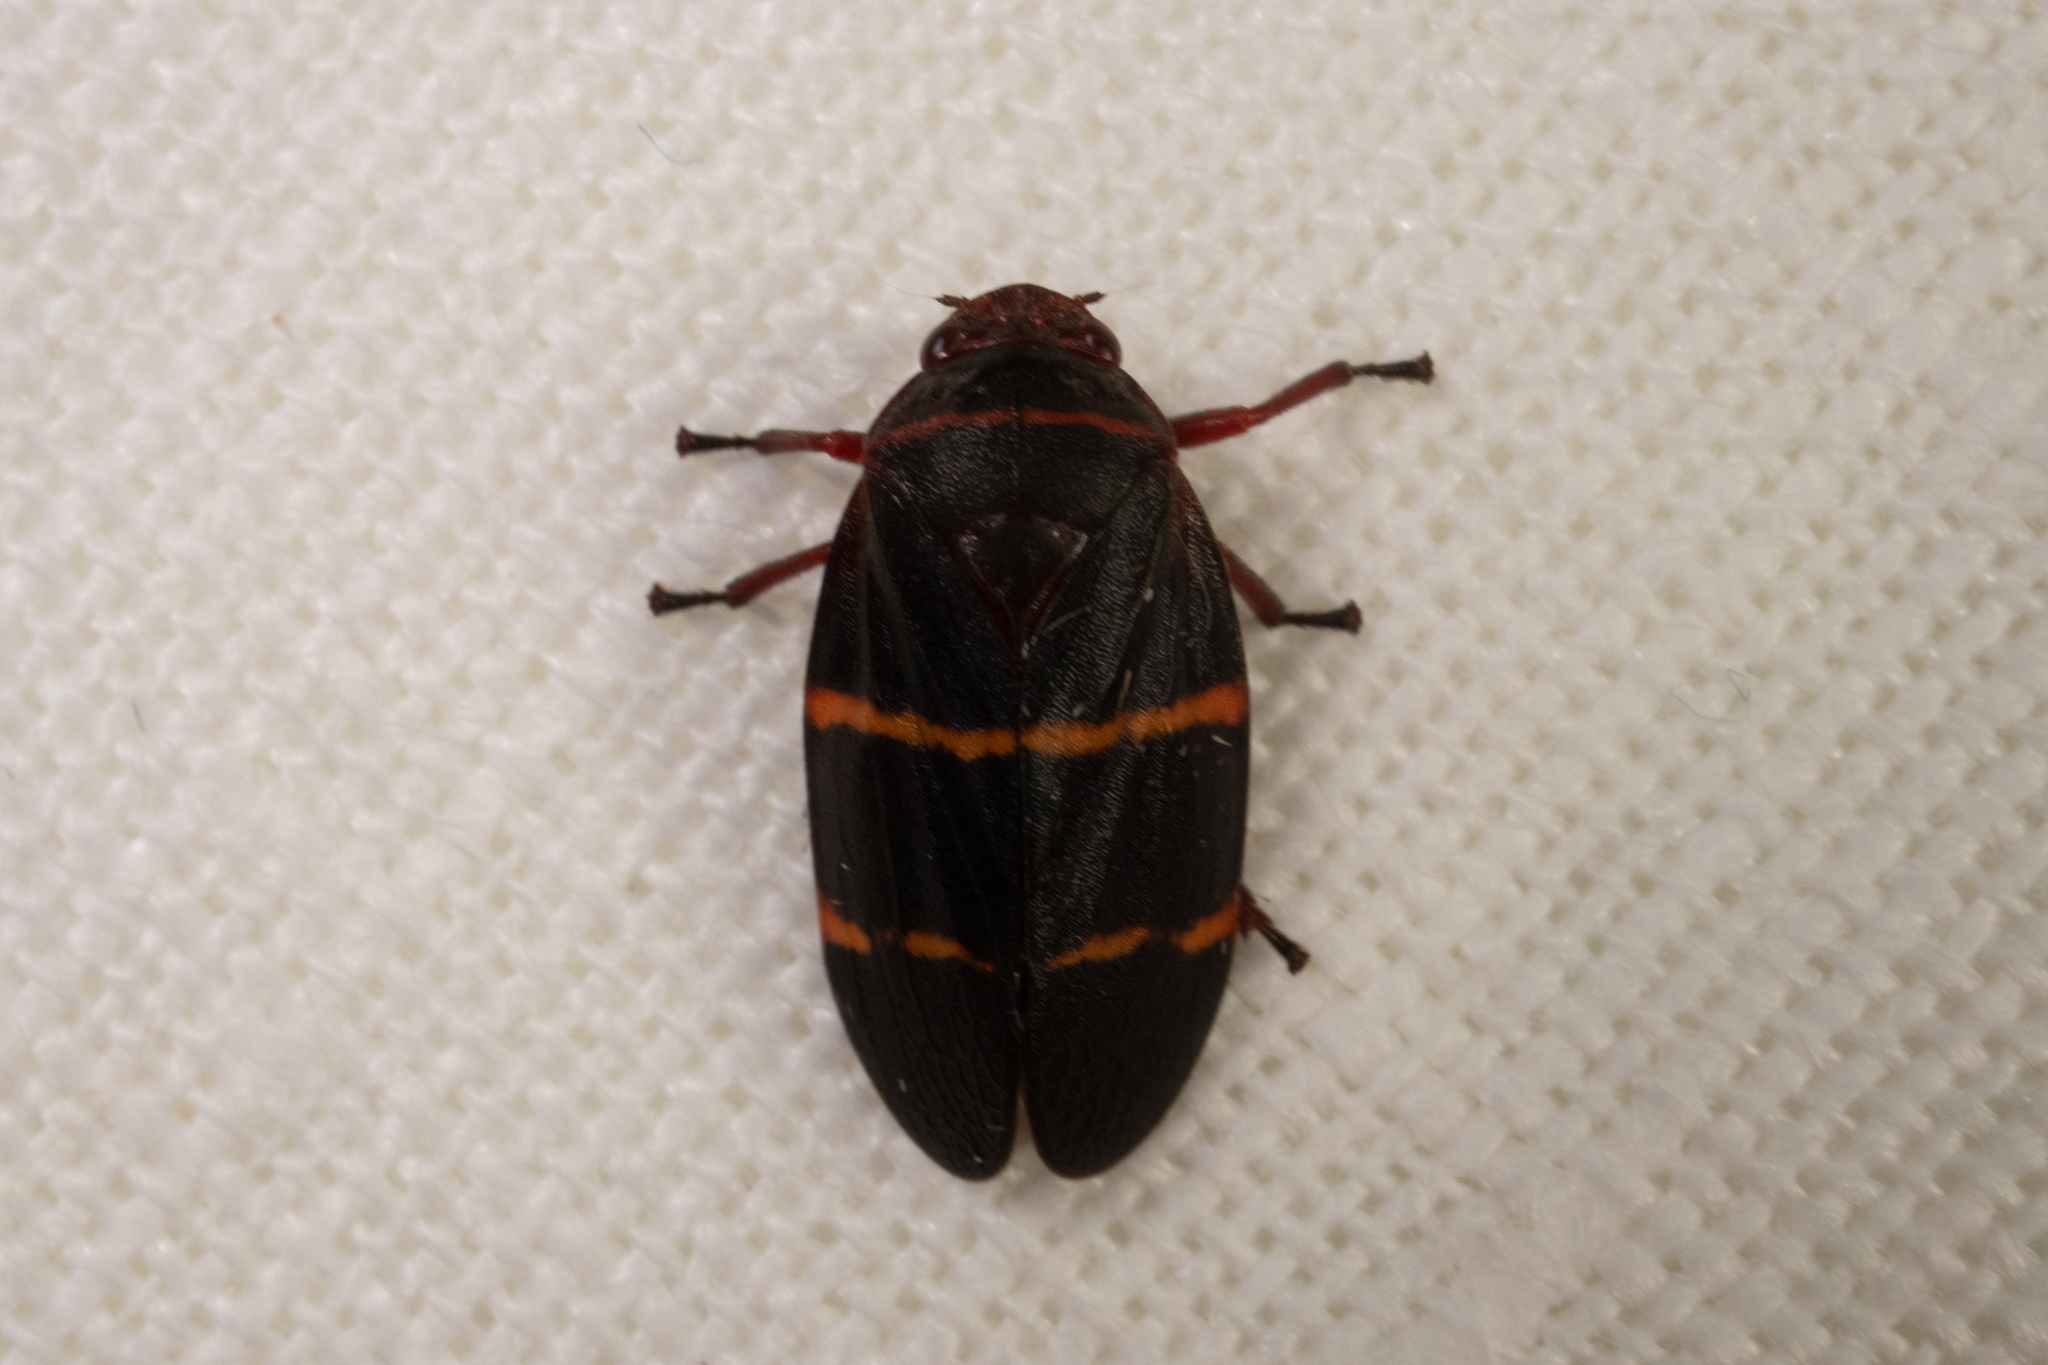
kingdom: Animalia
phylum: Arthropoda
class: Insecta
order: Hemiptera
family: Cercopidae
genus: Prosapia
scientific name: Prosapia bicincta
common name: Twolined spittlebug
